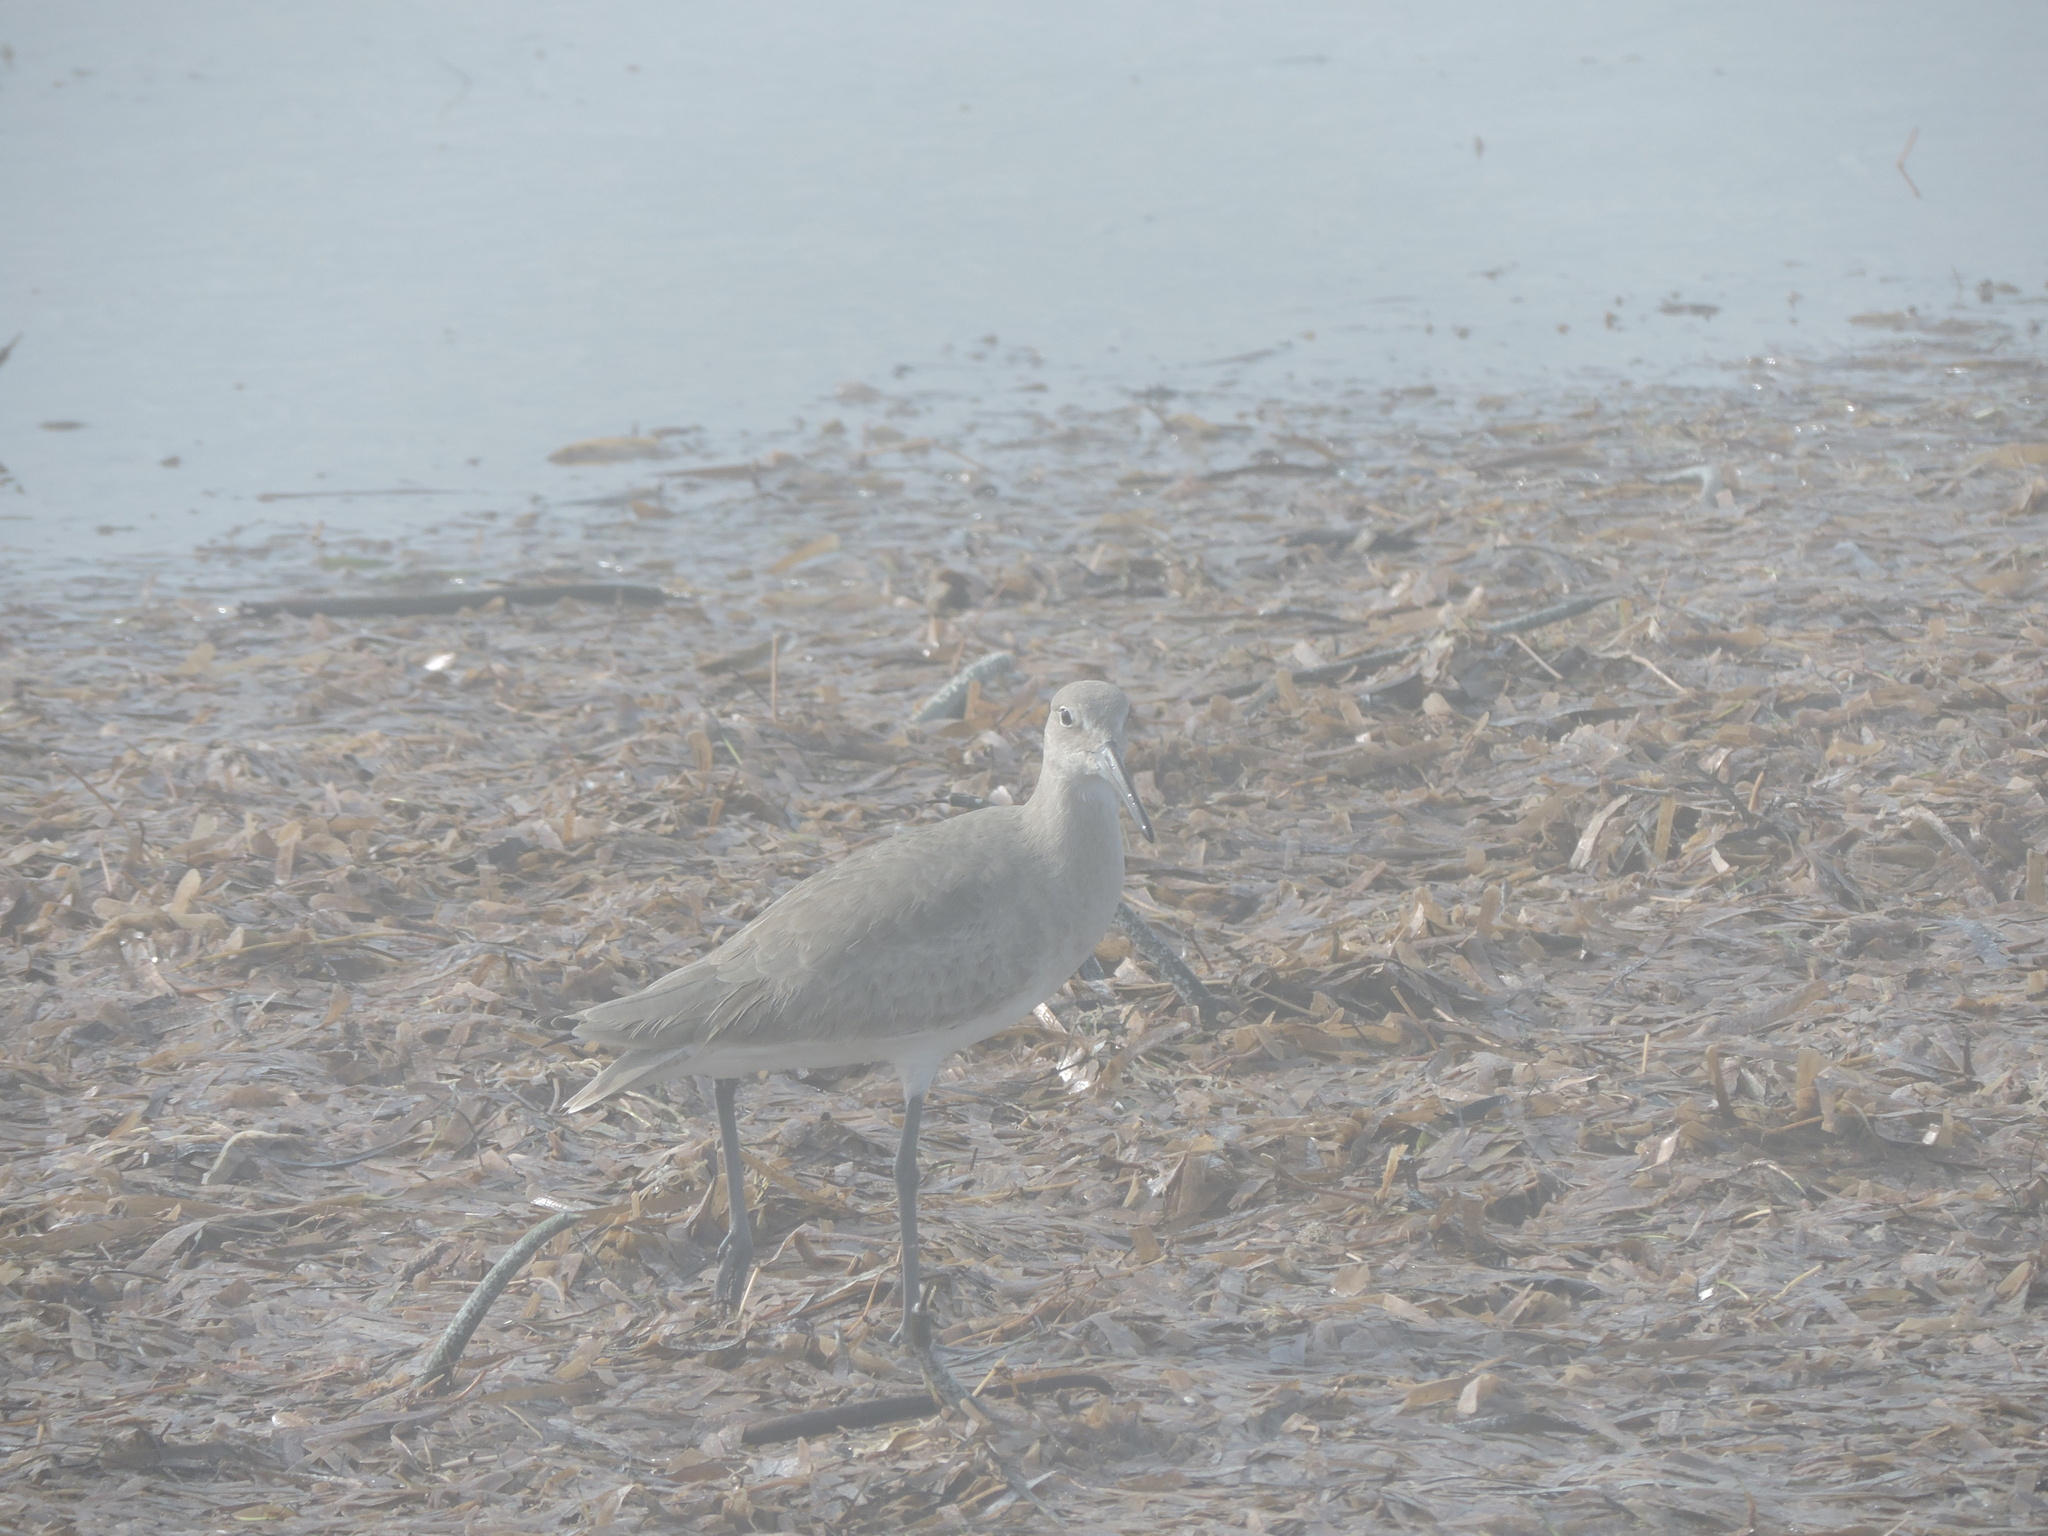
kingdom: Animalia
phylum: Chordata
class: Aves
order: Charadriiformes
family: Scolopacidae
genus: Tringa
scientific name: Tringa semipalmata
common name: Willet
